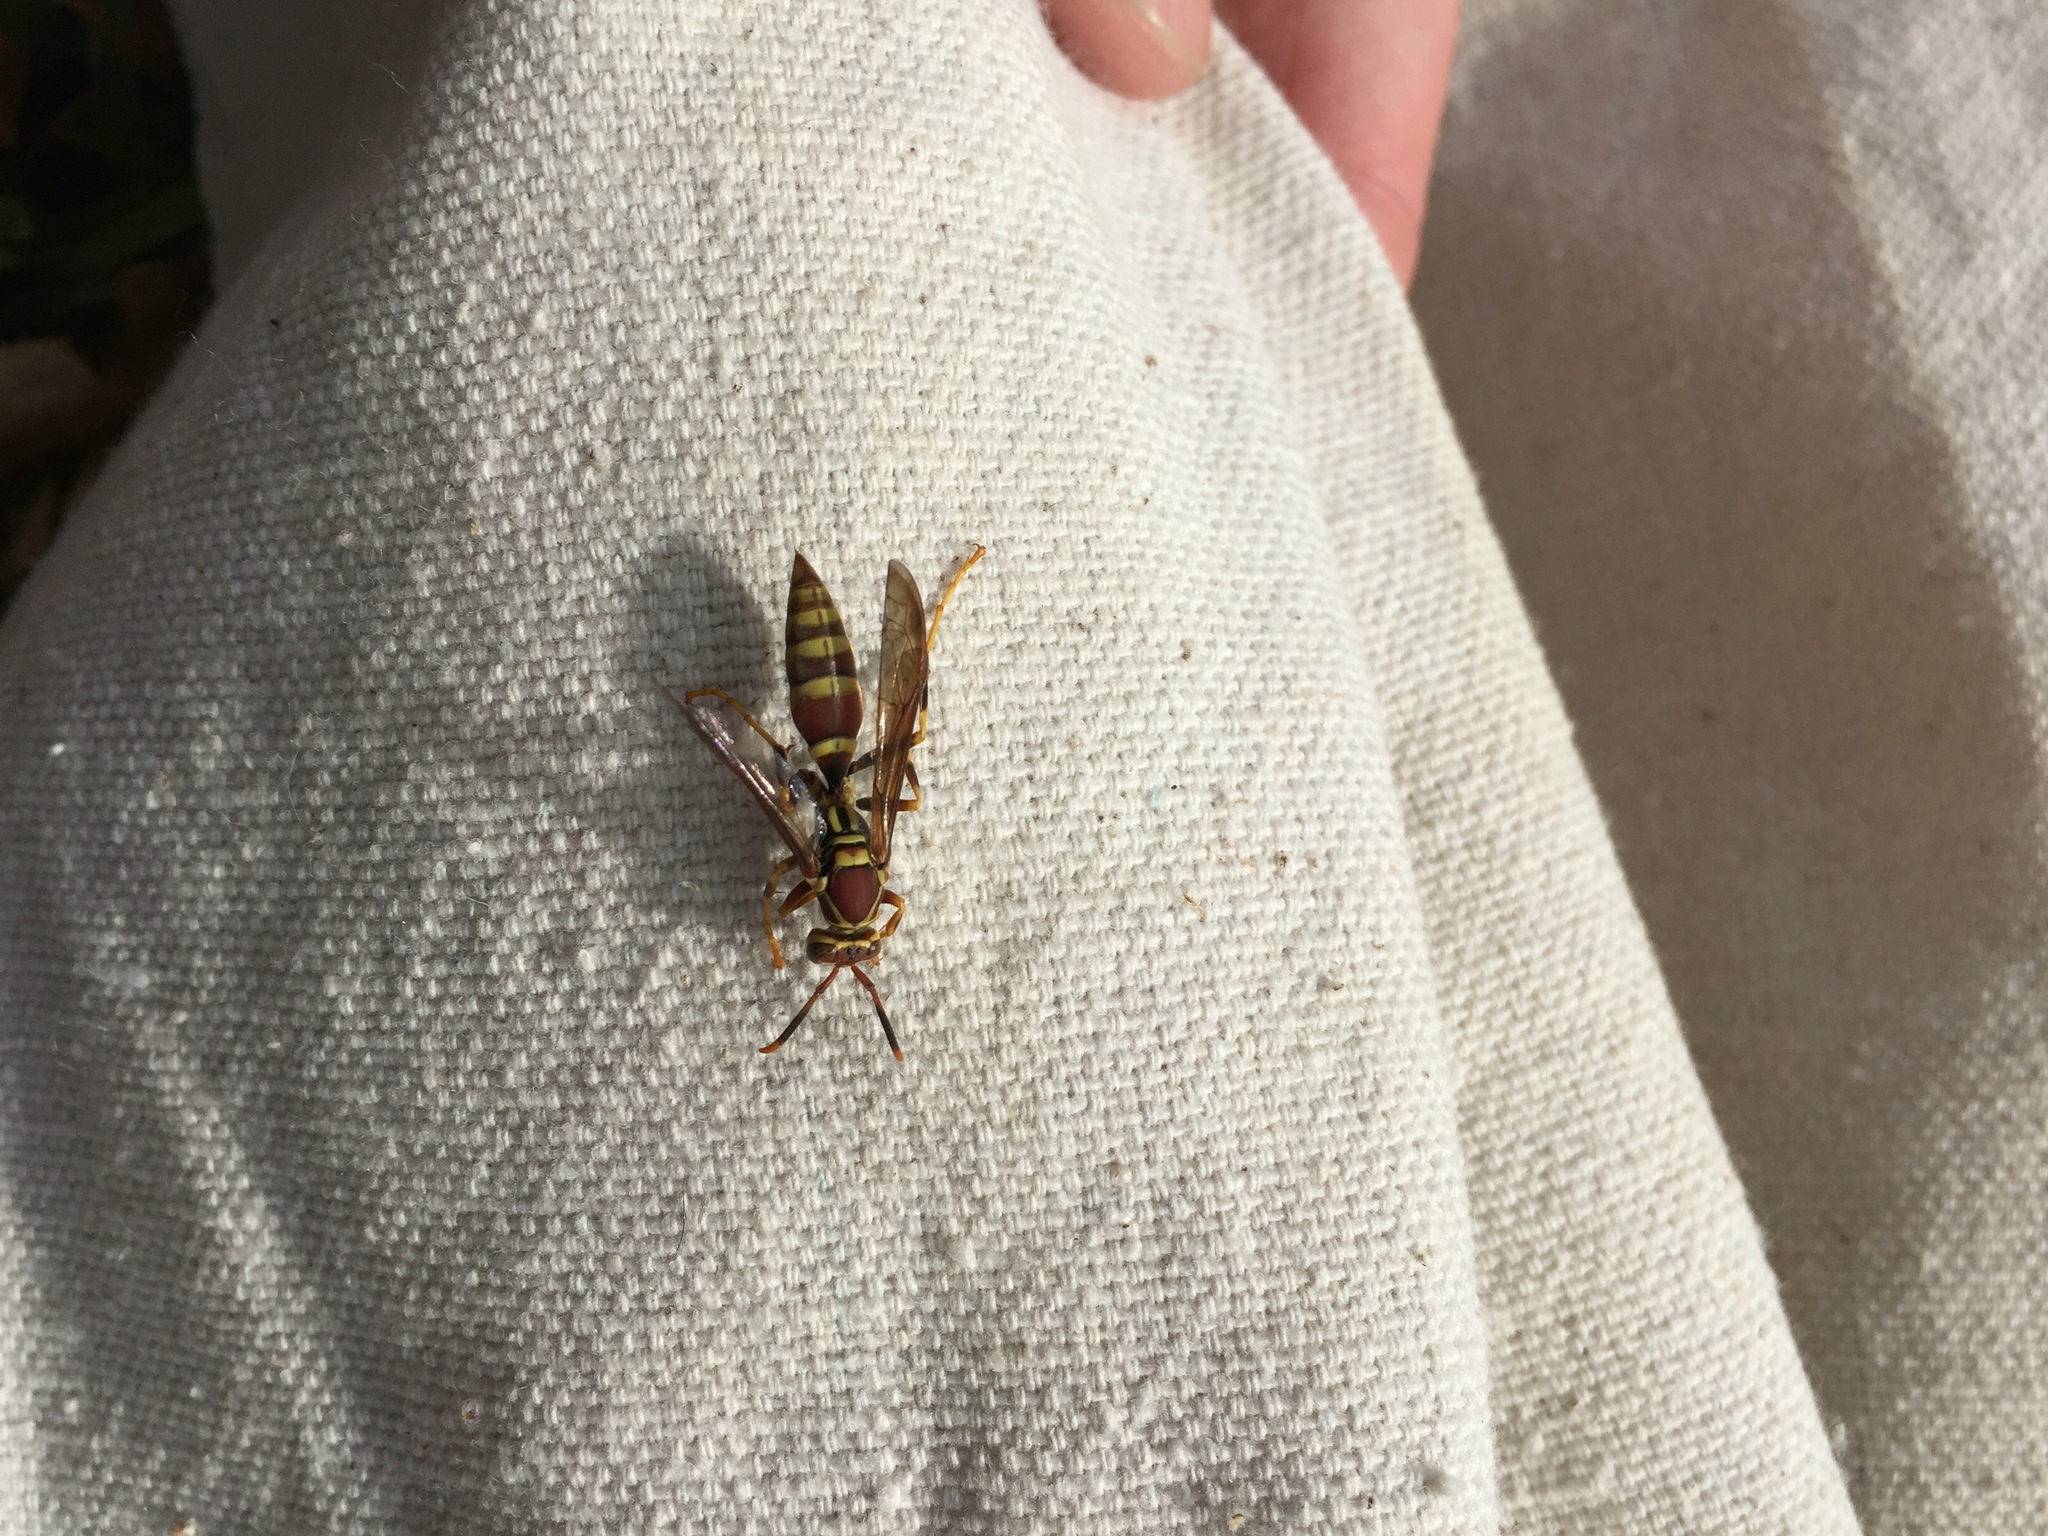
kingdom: Animalia
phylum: Arthropoda
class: Insecta
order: Hymenoptera
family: Eumenidae
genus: Polistes
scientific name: Polistes exclamans
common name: Paper wasp
